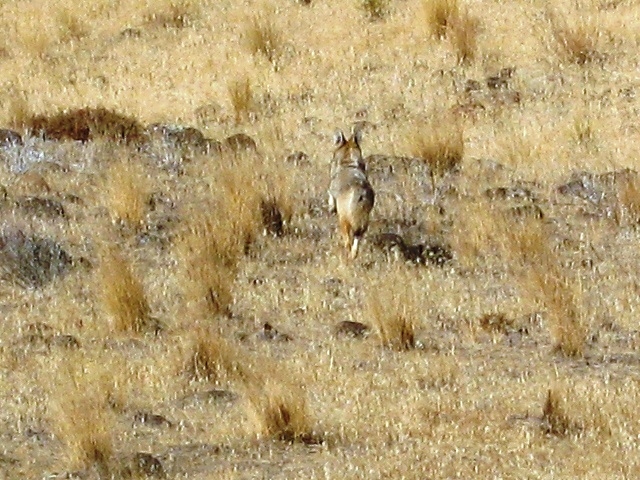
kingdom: Animalia
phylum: Chordata
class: Mammalia
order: Carnivora
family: Canidae
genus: Canis
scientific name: Canis latrans
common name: Coyote
